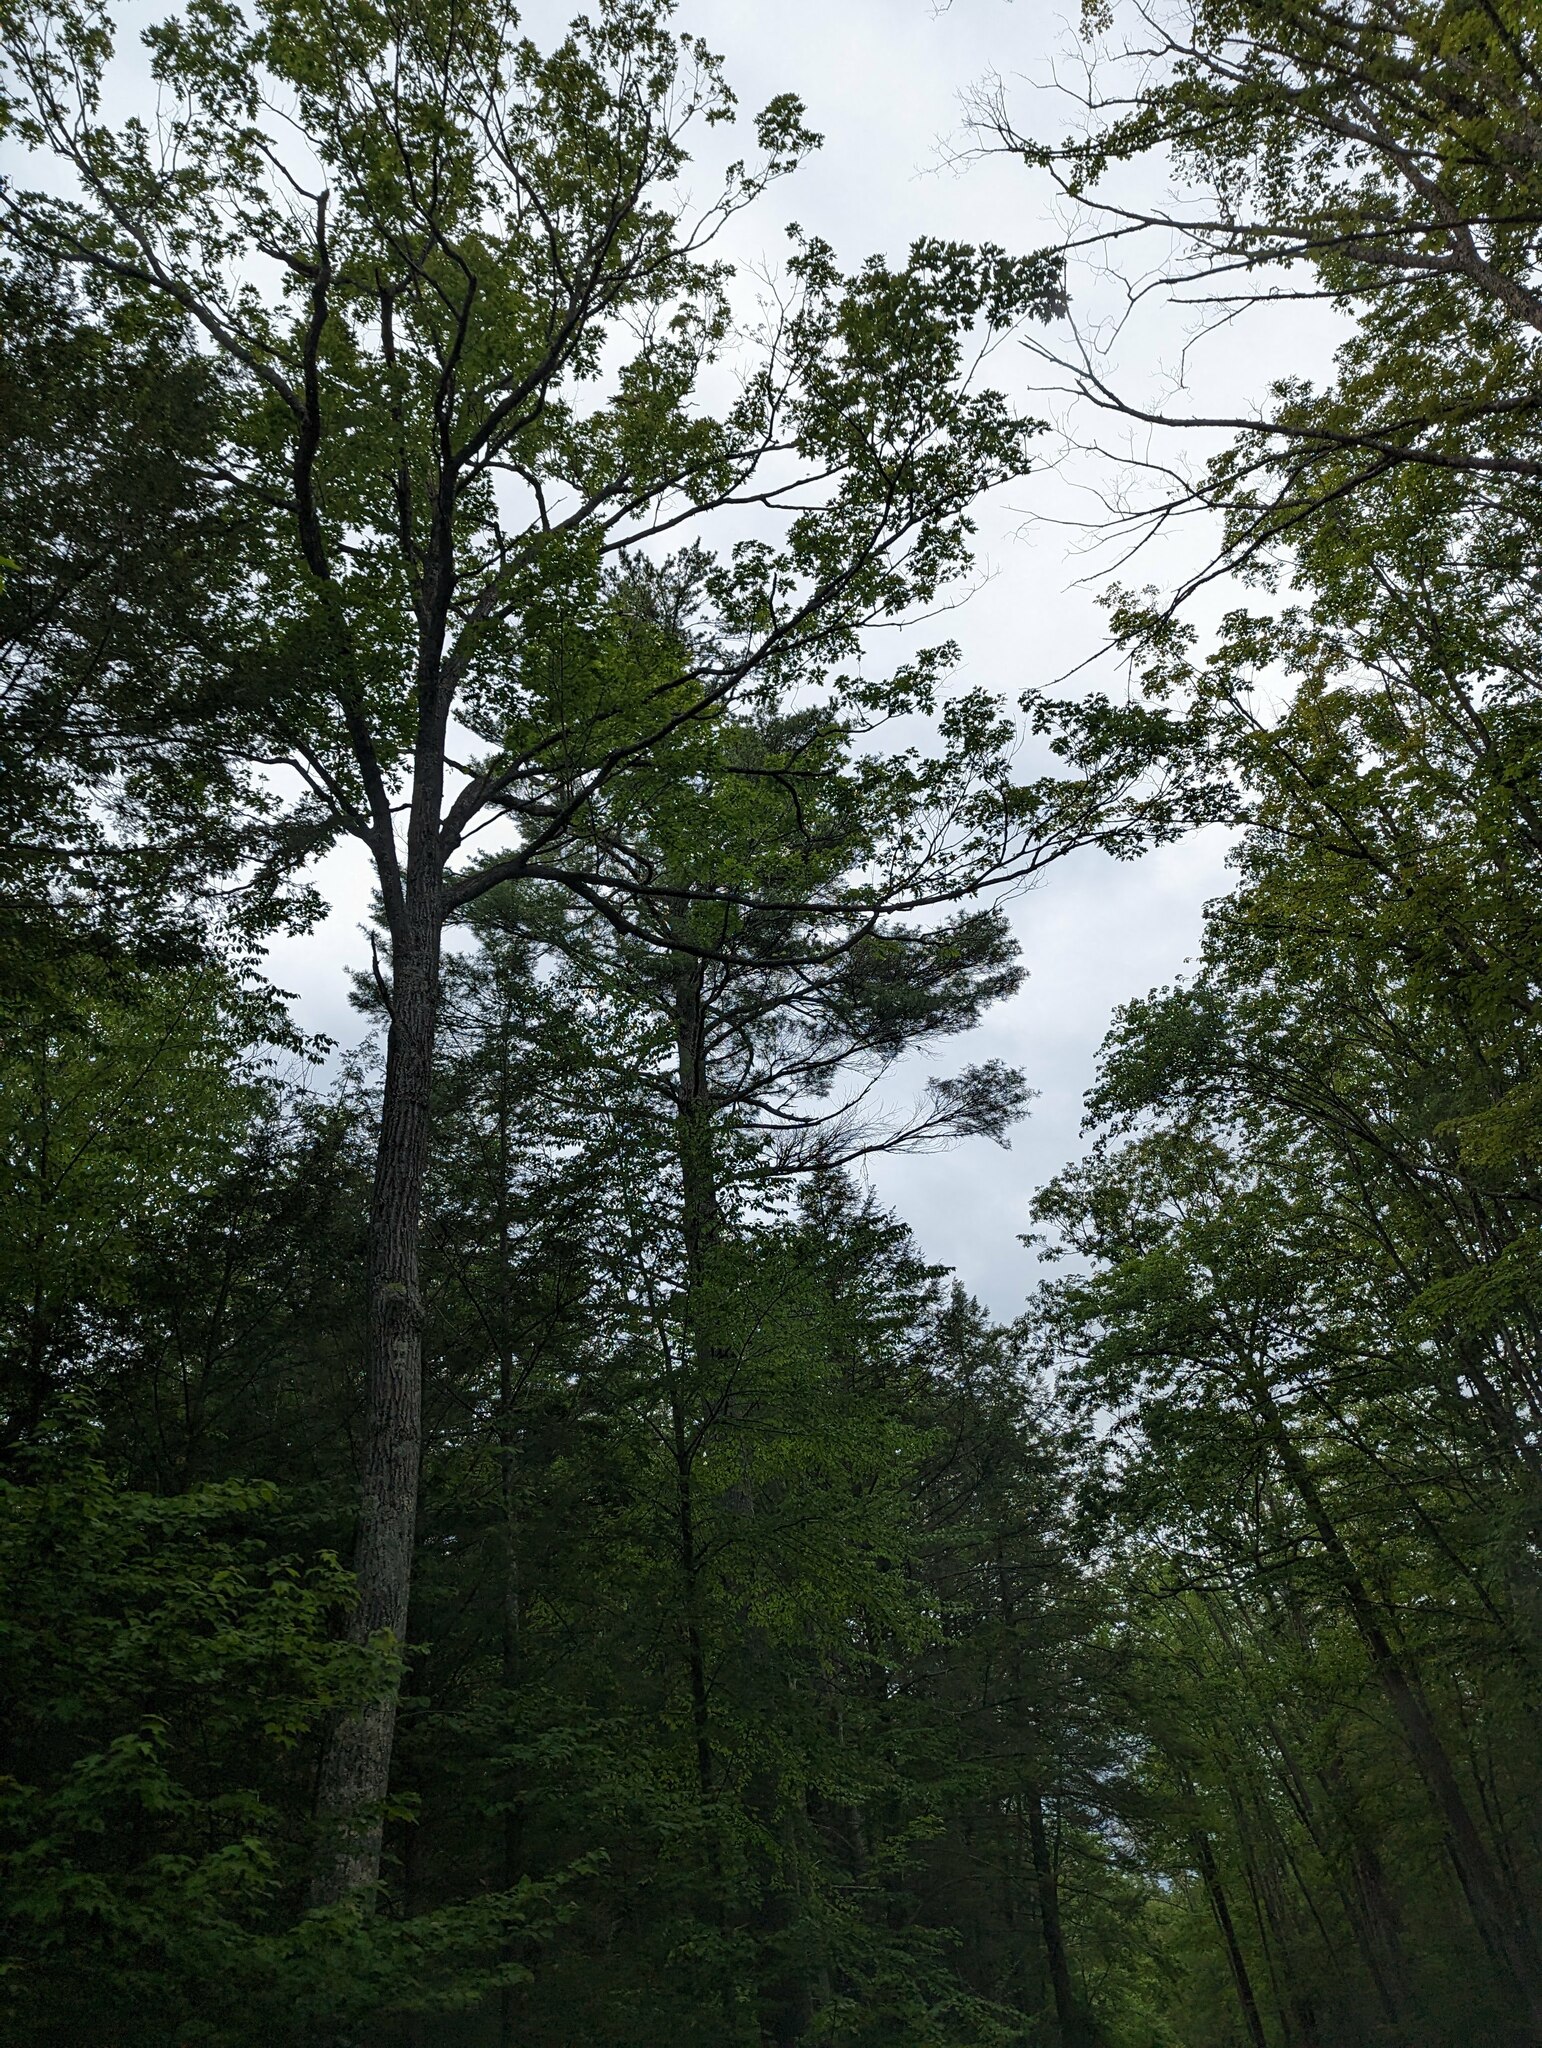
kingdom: Plantae
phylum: Tracheophyta
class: Pinopsida
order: Pinales
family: Pinaceae
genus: Pinus
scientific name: Pinus strobus
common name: Weymouth pine
